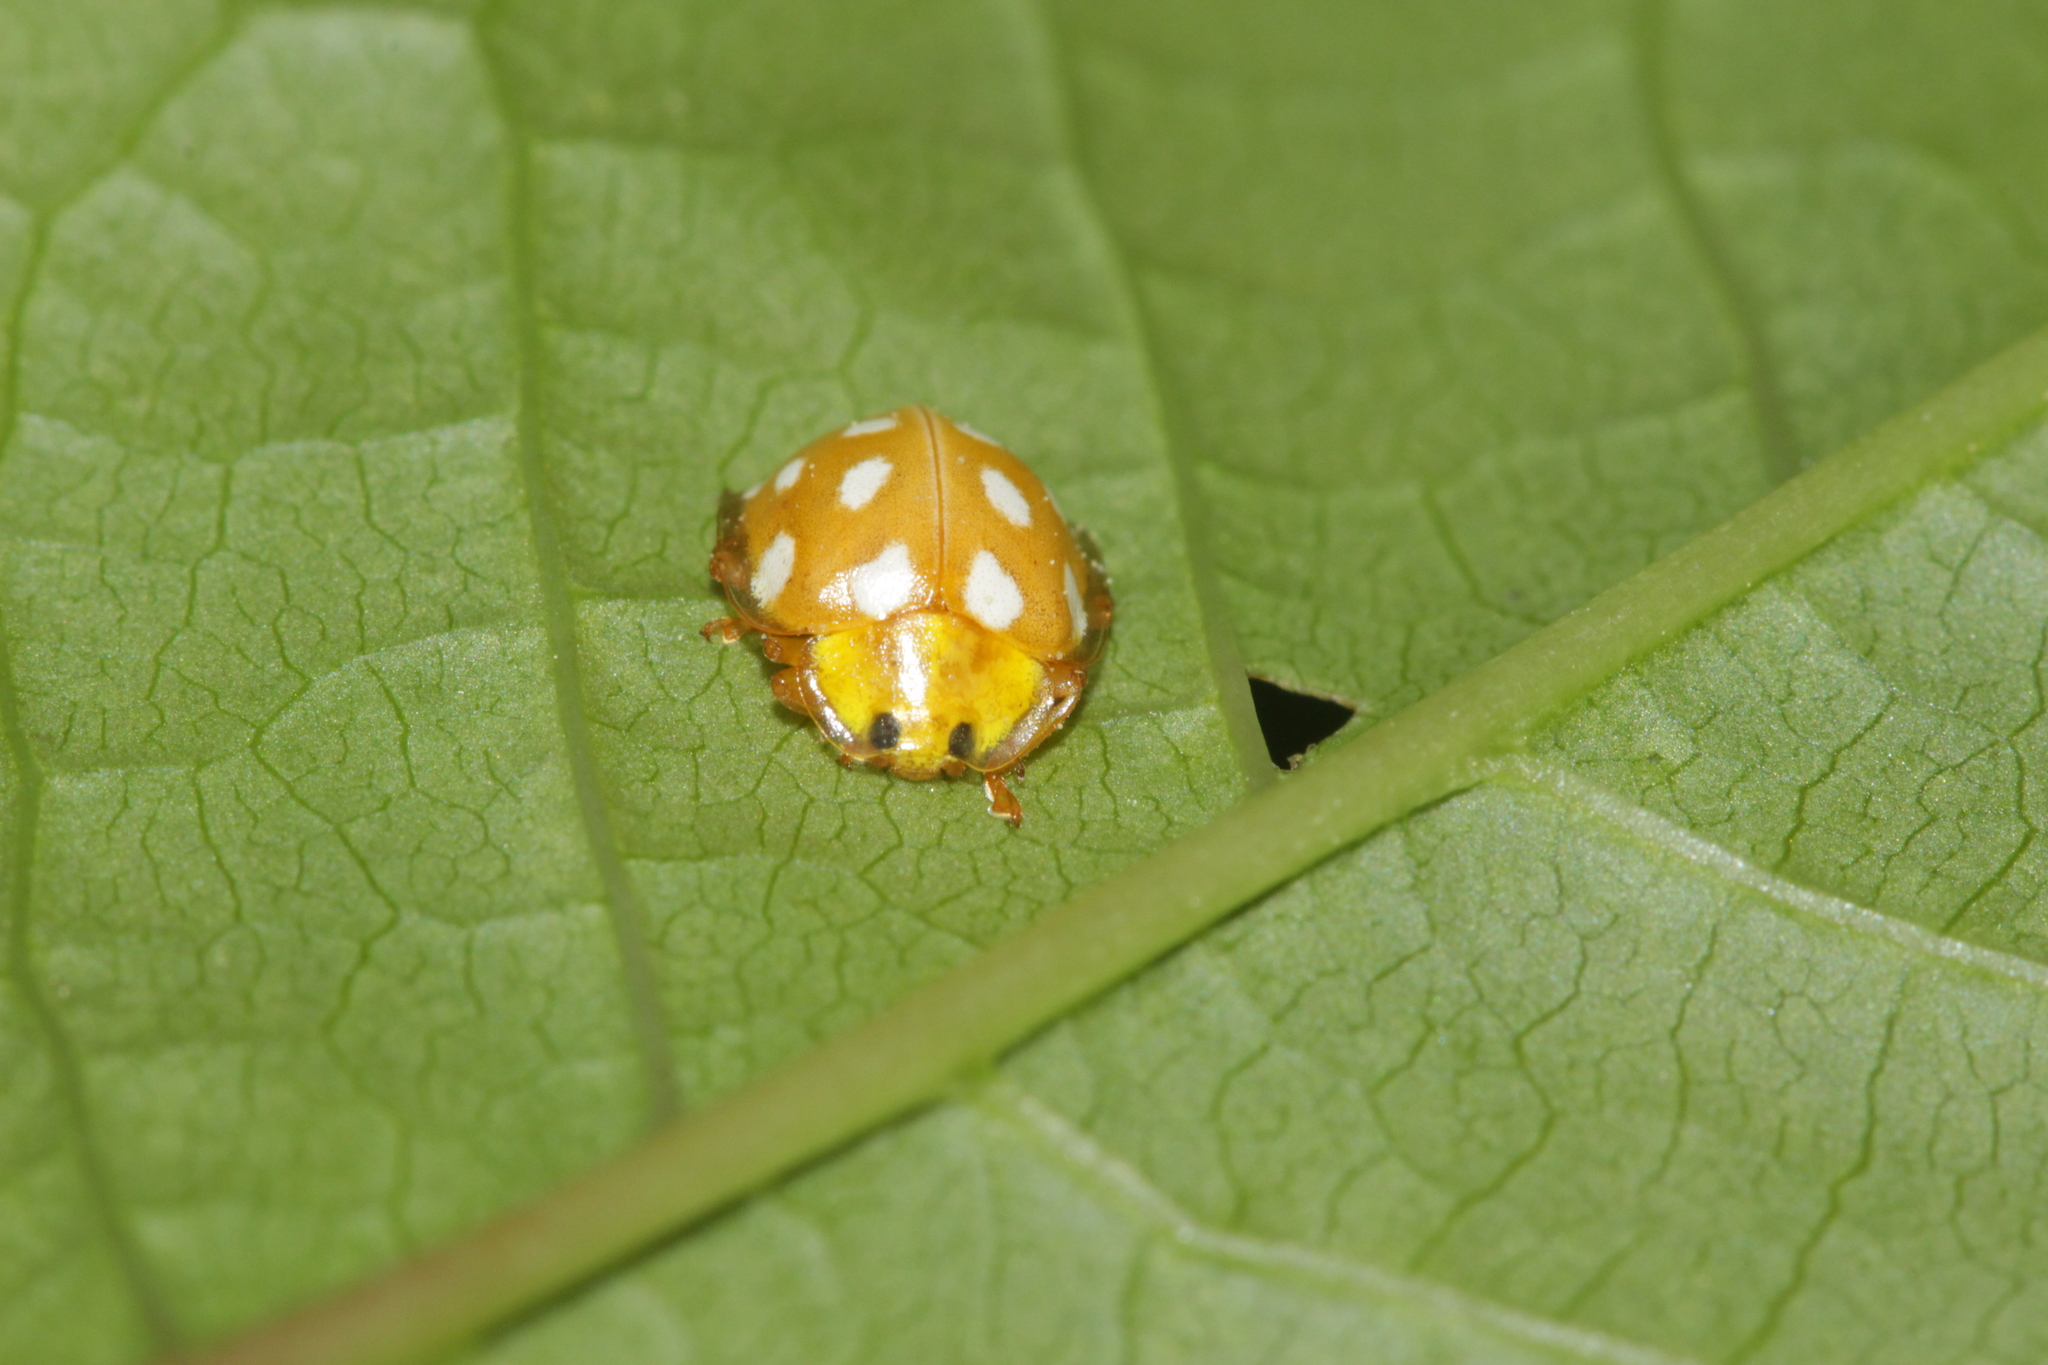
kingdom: Animalia
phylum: Arthropoda
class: Insecta
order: Coleoptera
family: Coccinellidae
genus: Halyzia
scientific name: Halyzia sedecimguttata
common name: Orange ladybird
